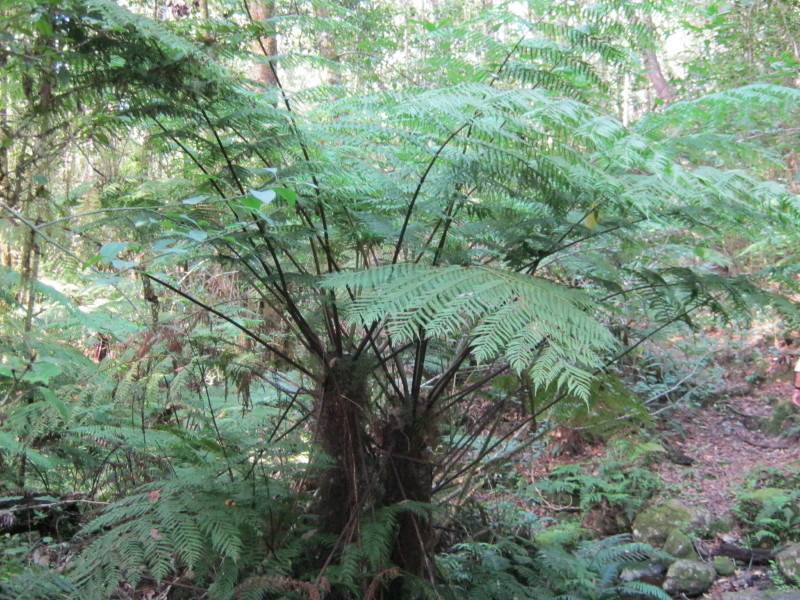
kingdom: Plantae
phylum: Tracheophyta
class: Polypodiopsida
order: Cyatheales
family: Cyatheaceae
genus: Gymnosphaera
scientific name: Gymnosphaera capensis
